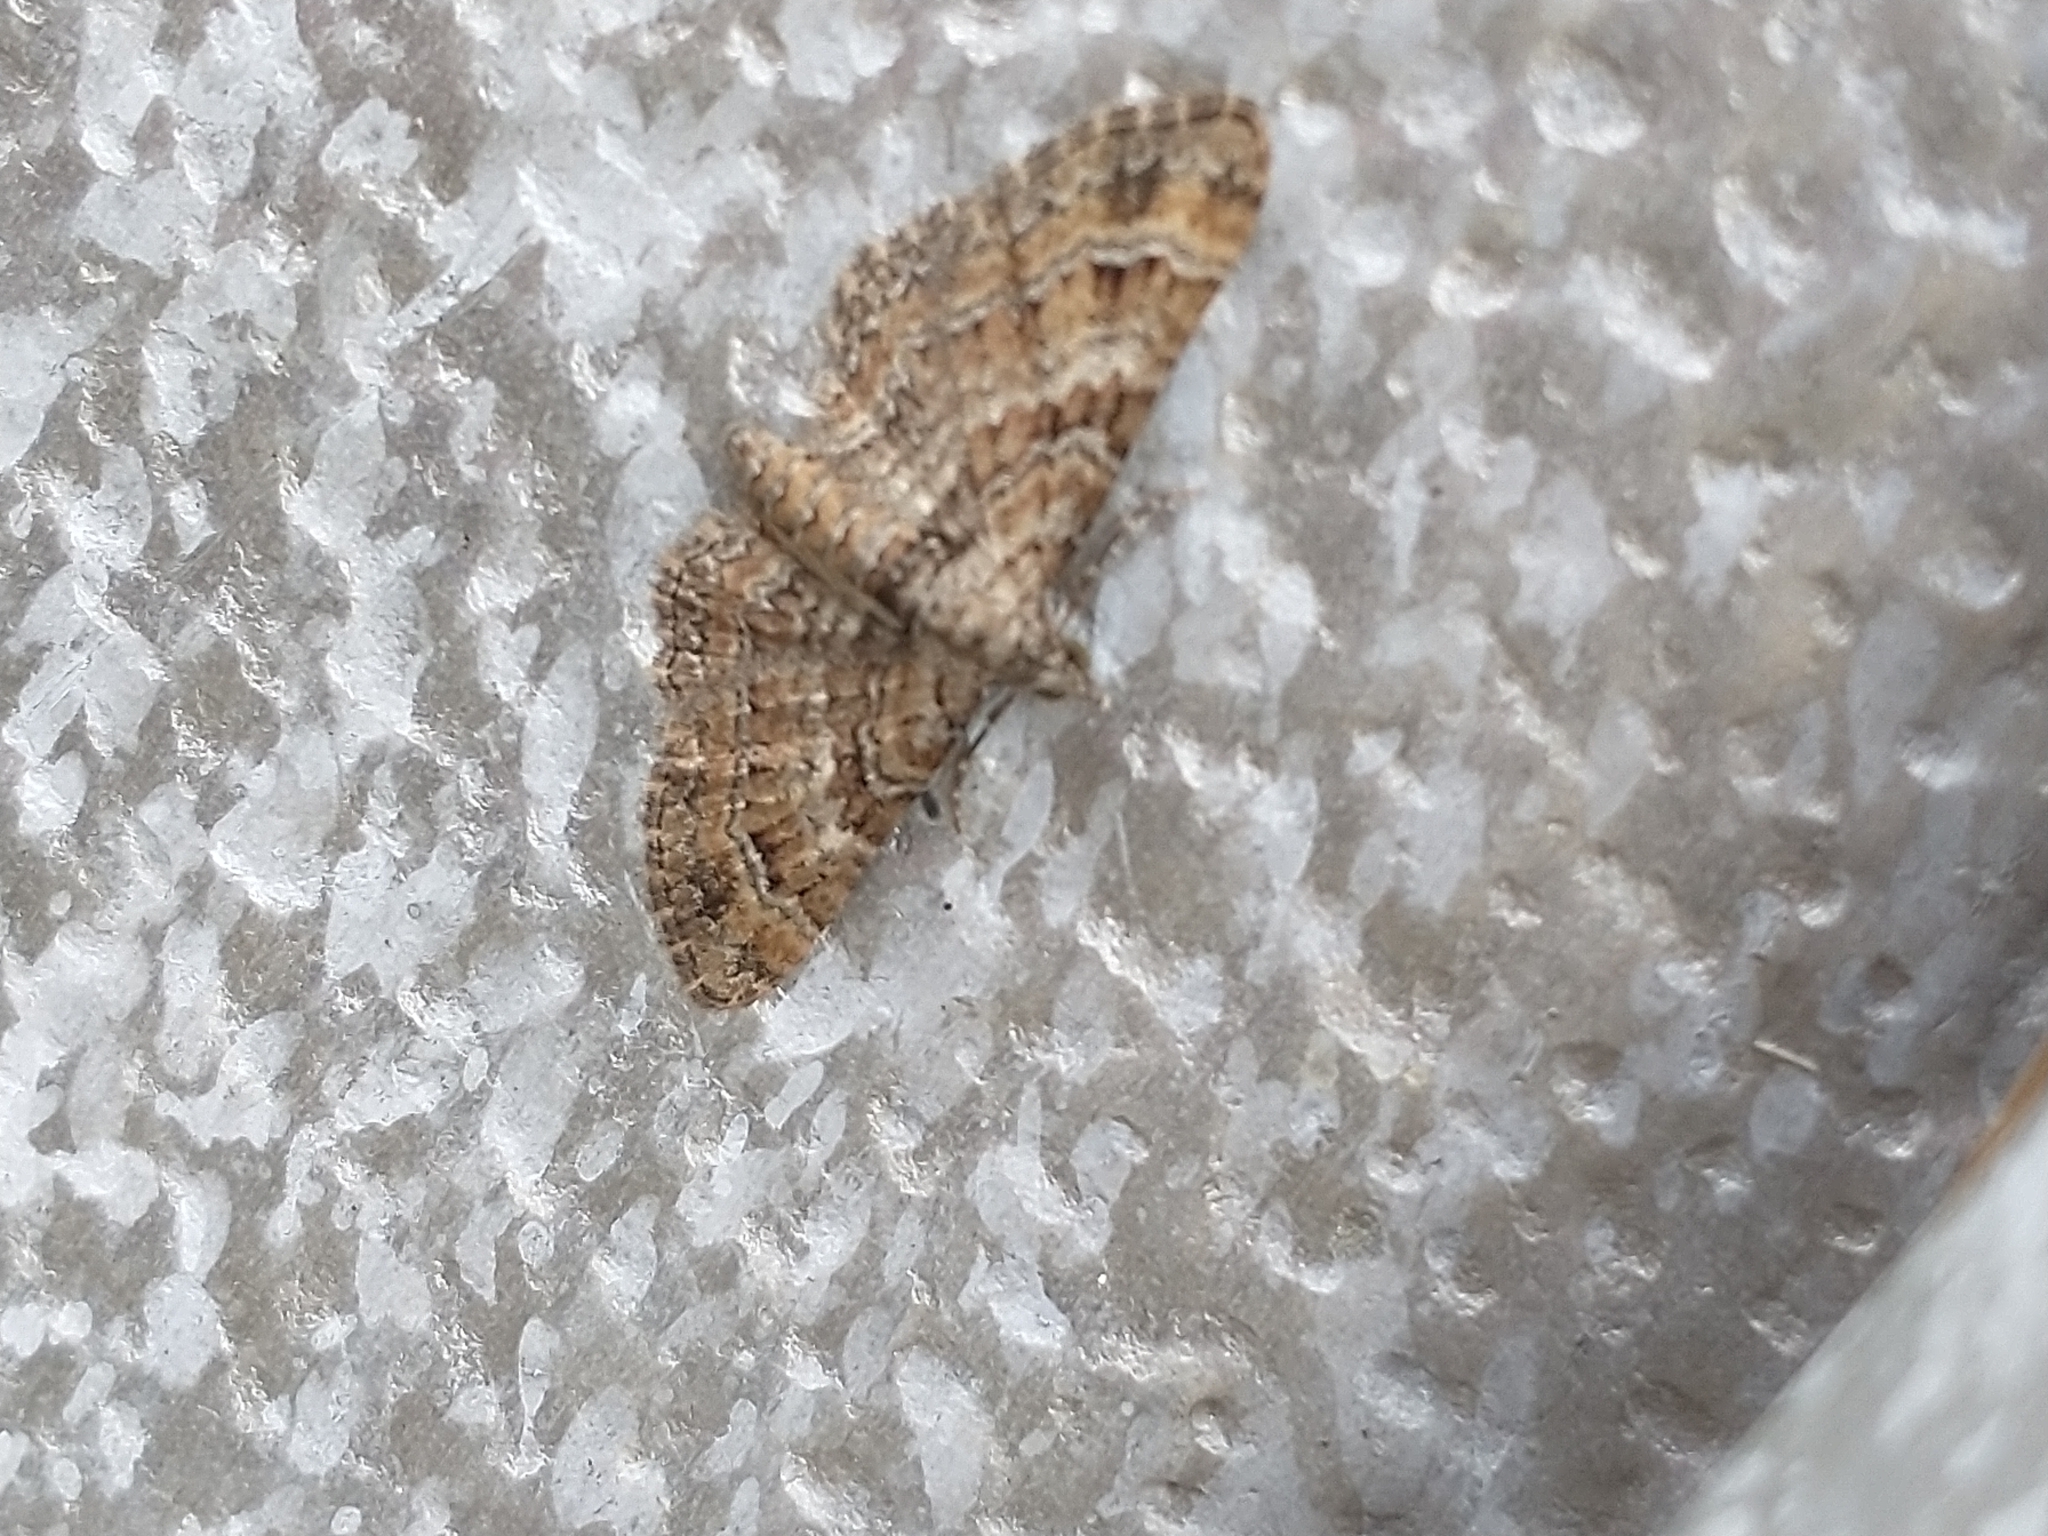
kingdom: Animalia
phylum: Arthropoda
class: Insecta
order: Lepidoptera
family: Geometridae
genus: Gymnoscelis
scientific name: Gymnoscelis rufifasciata
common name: Double-striped pug
